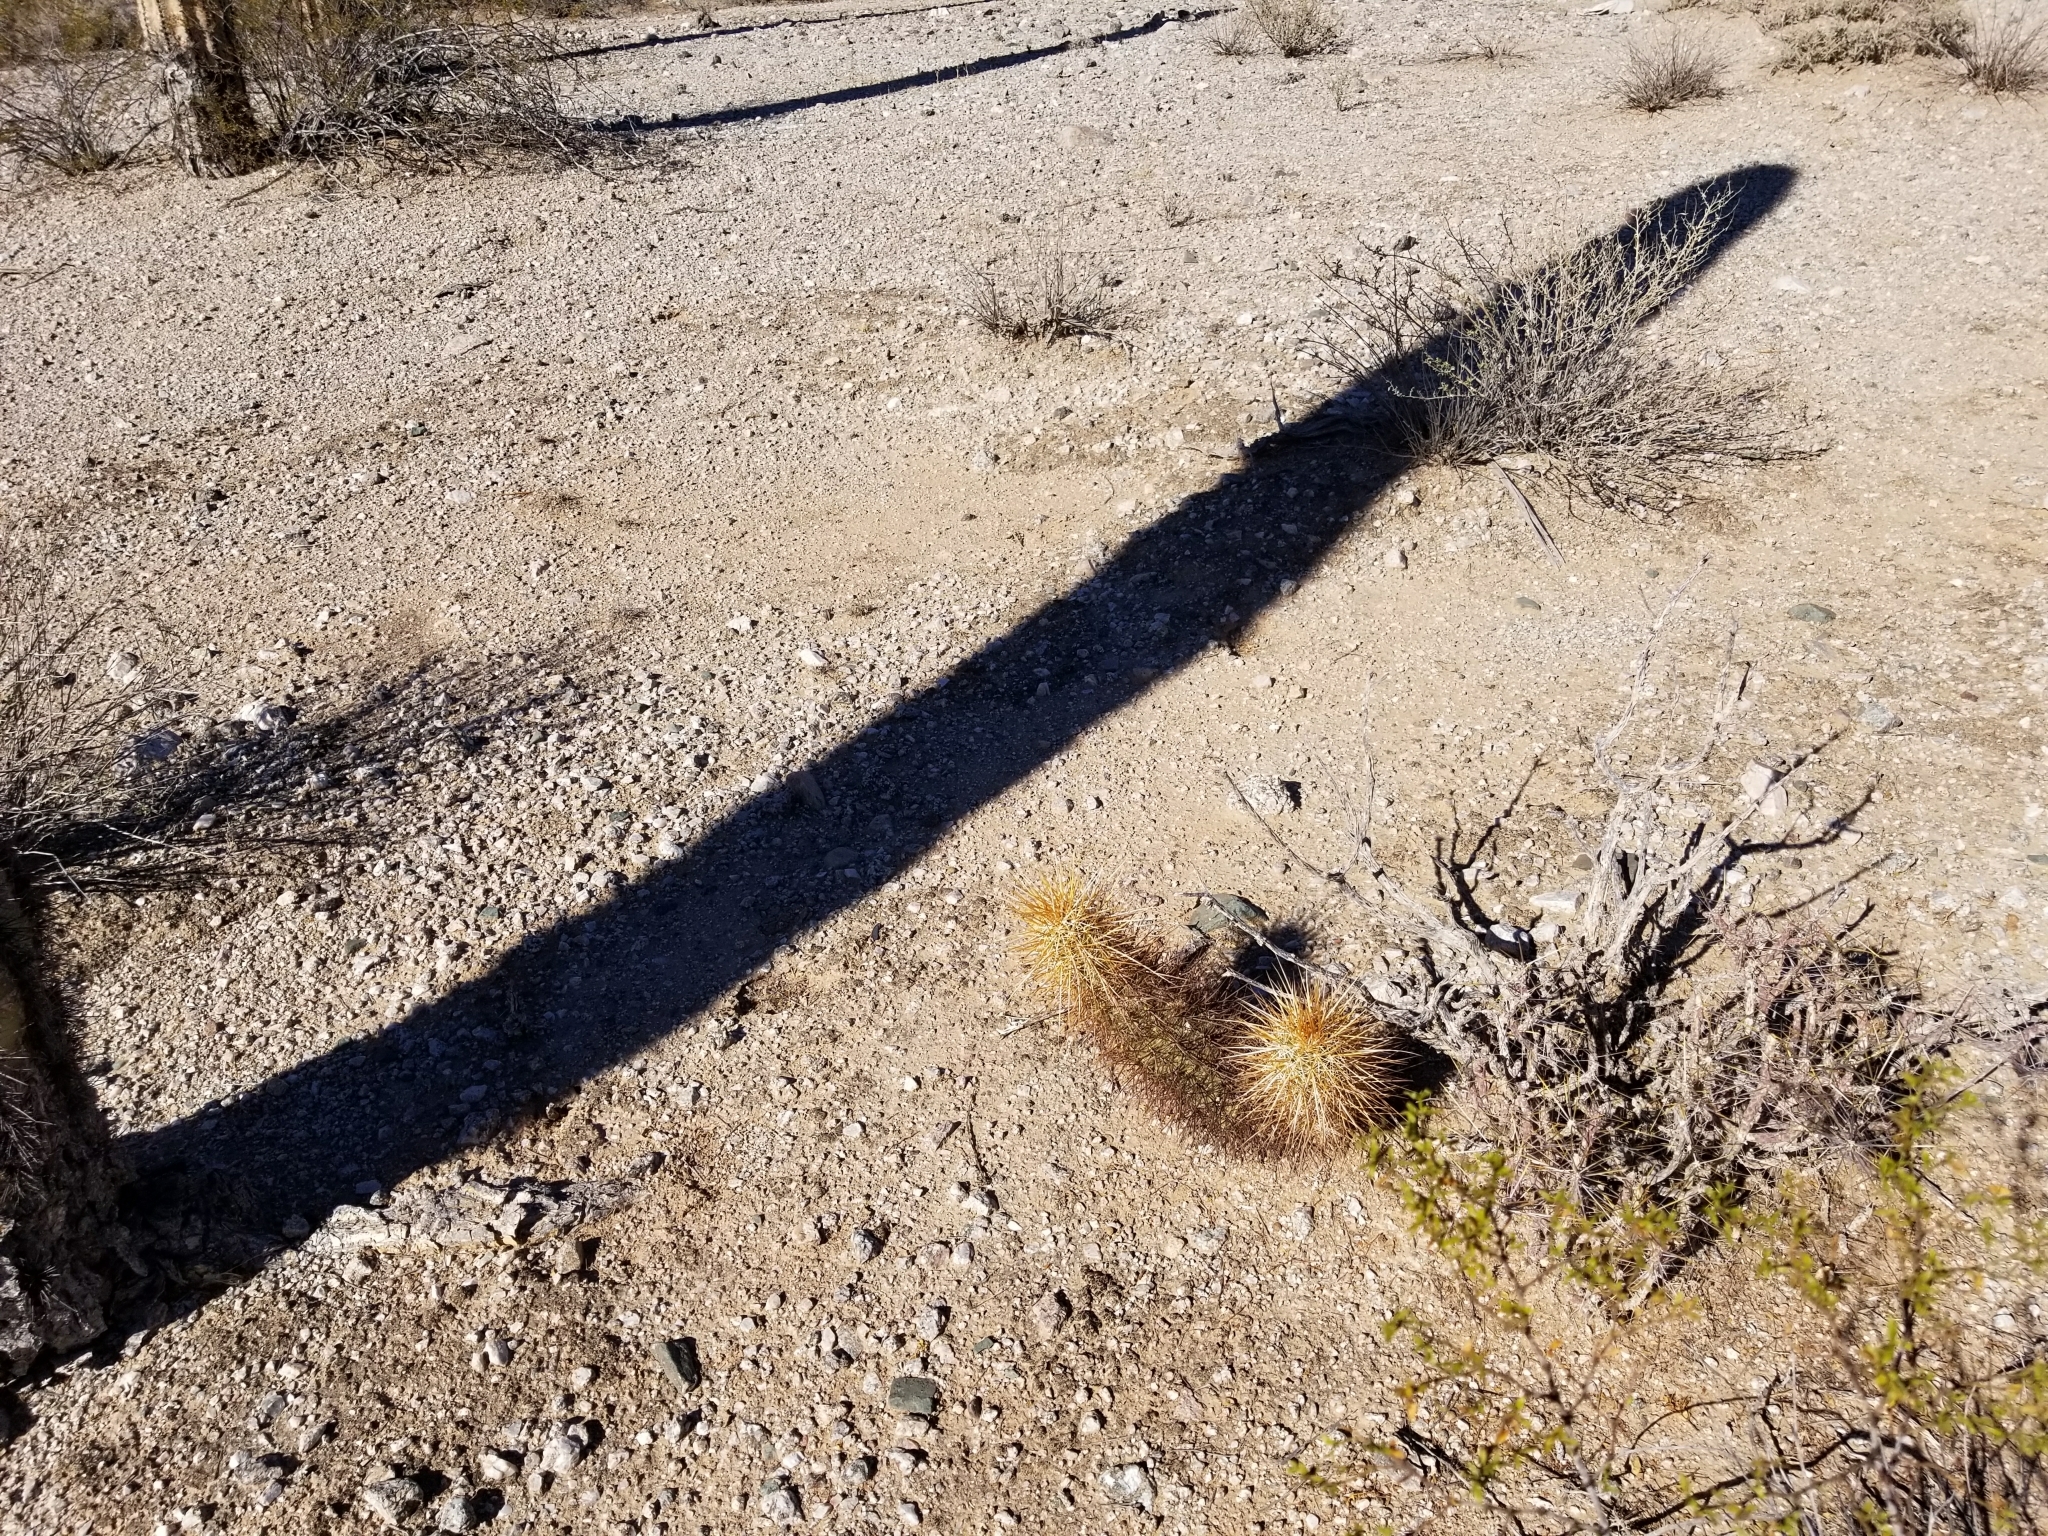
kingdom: Plantae
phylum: Tracheophyta
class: Magnoliopsida
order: Caryophyllales
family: Cactaceae
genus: Echinocereus
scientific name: Echinocereus engelmannii
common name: Engelmann's hedgehog cactus
